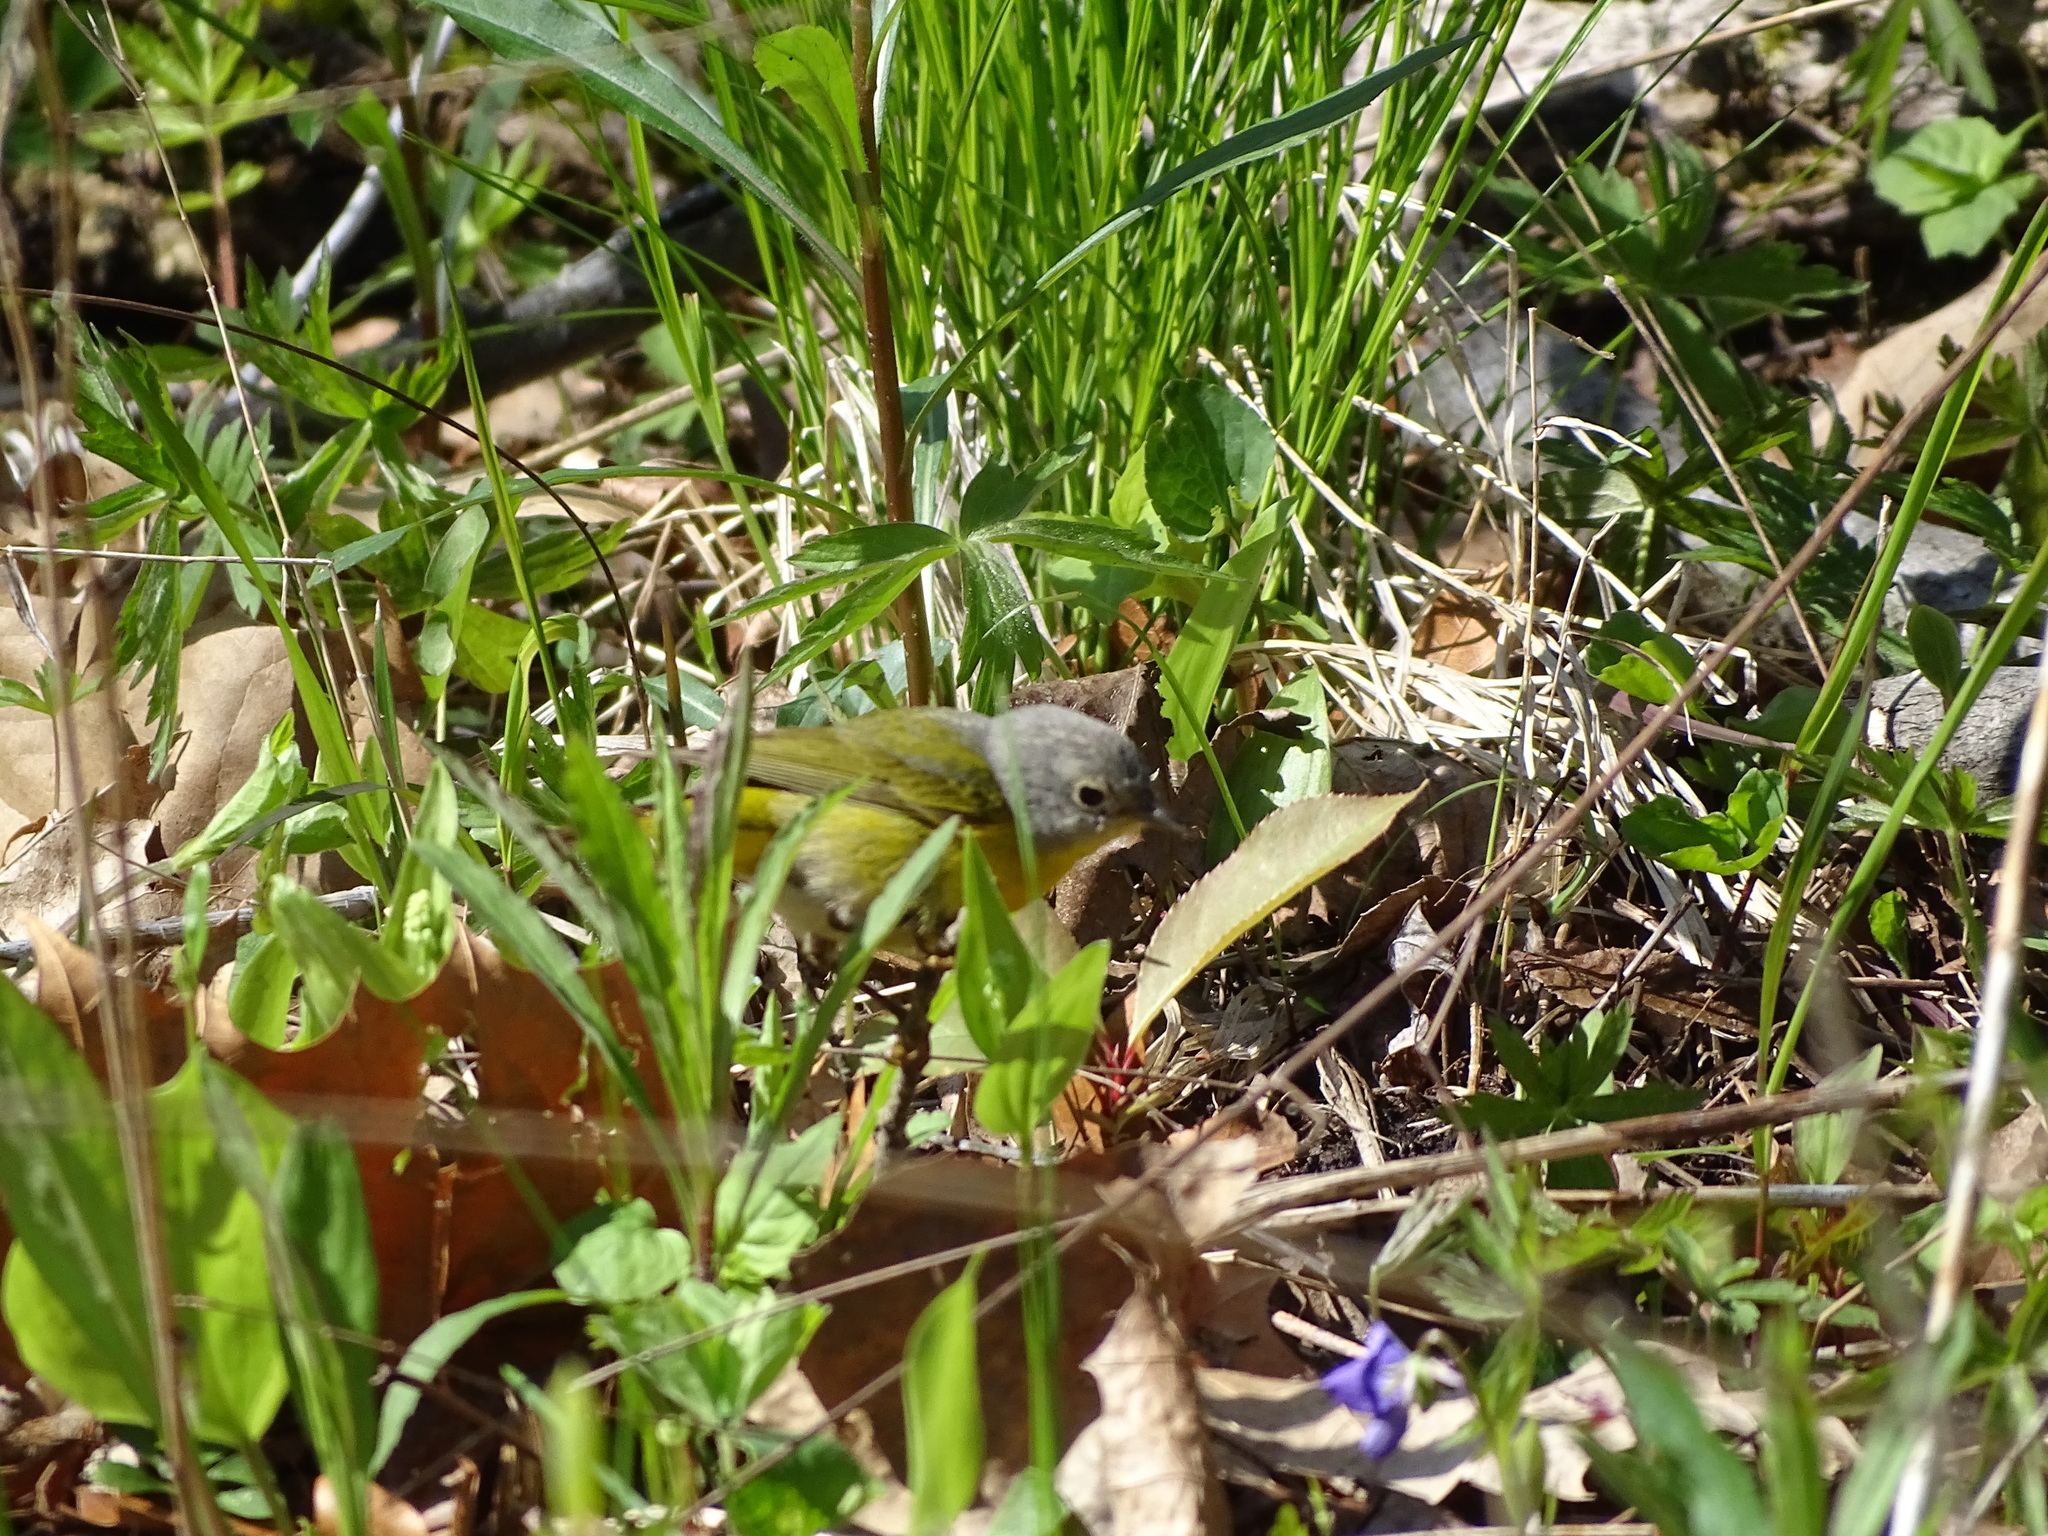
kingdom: Animalia
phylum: Chordata
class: Aves
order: Passeriformes
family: Parulidae
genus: Leiothlypis
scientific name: Leiothlypis ruficapilla
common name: Nashville warbler
